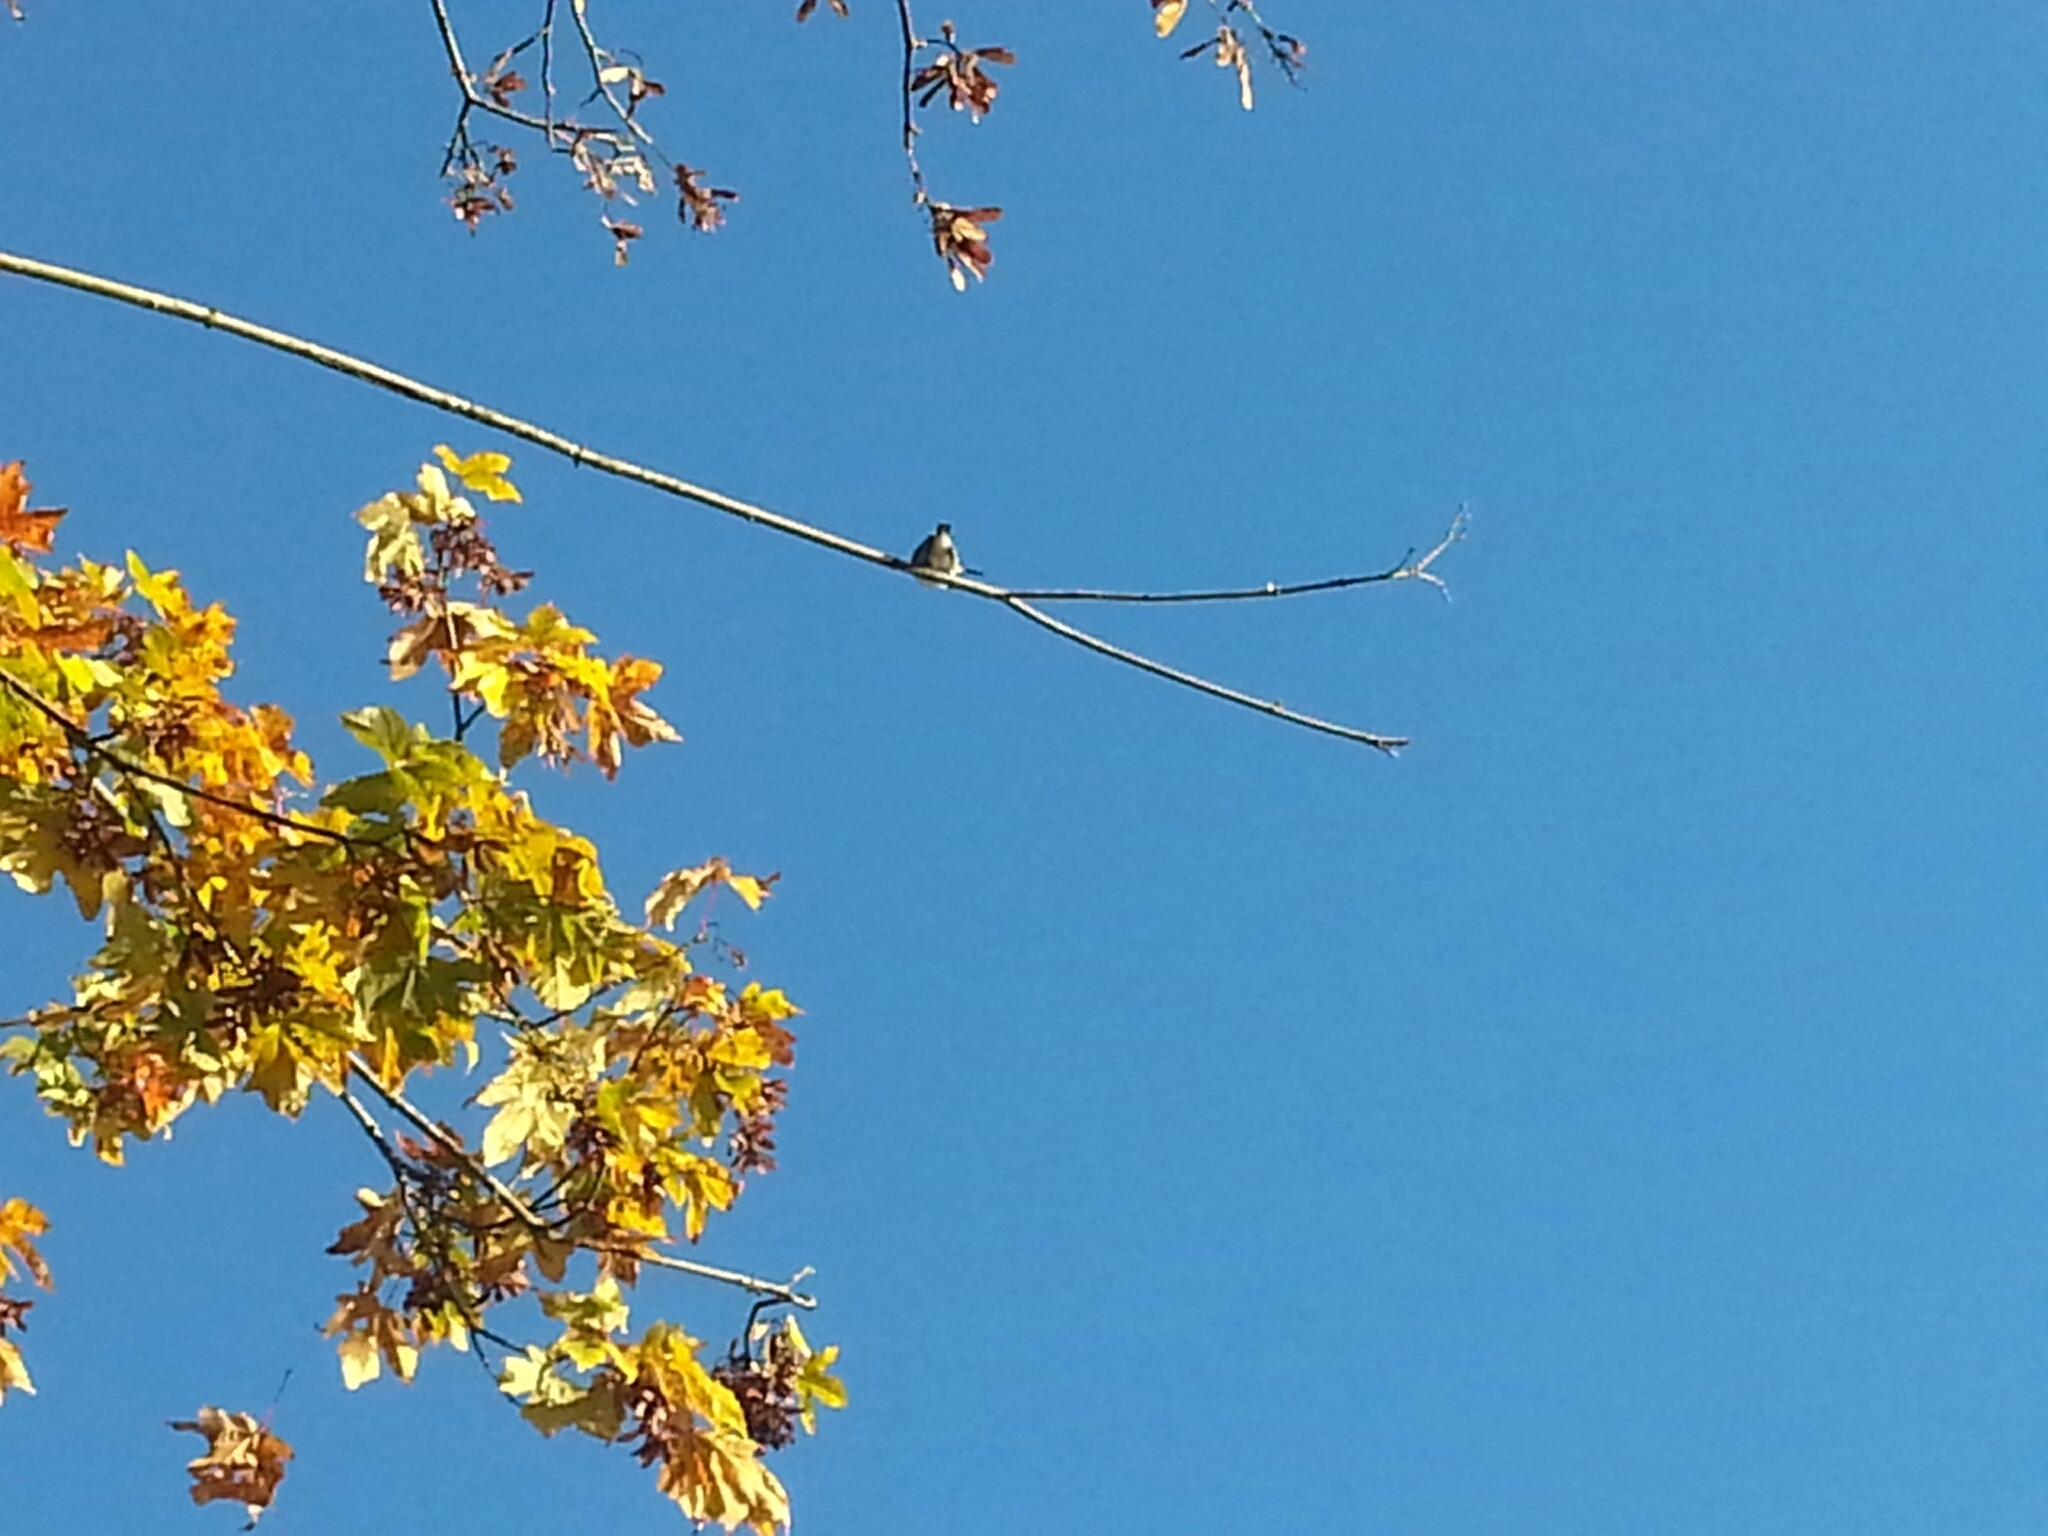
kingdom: Animalia
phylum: Chordata
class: Aves
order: Coraciiformes
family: Alcedinidae
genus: Megaceryle
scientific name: Megaceryle alcyon
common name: Belted kingfisher
